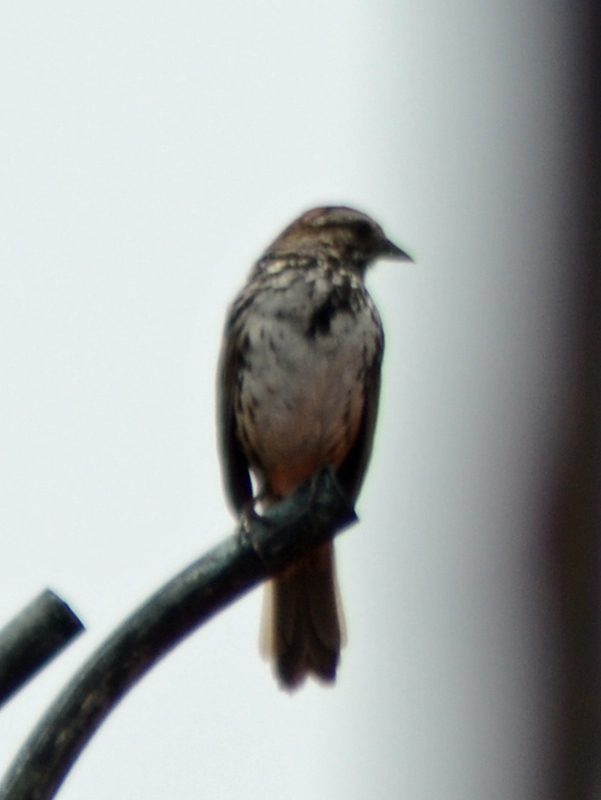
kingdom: Animalia
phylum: Chordata
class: Aves
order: Passeriformes
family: Passerellidae
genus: Melospiza
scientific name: Melospiza melodia
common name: Song sparrow
